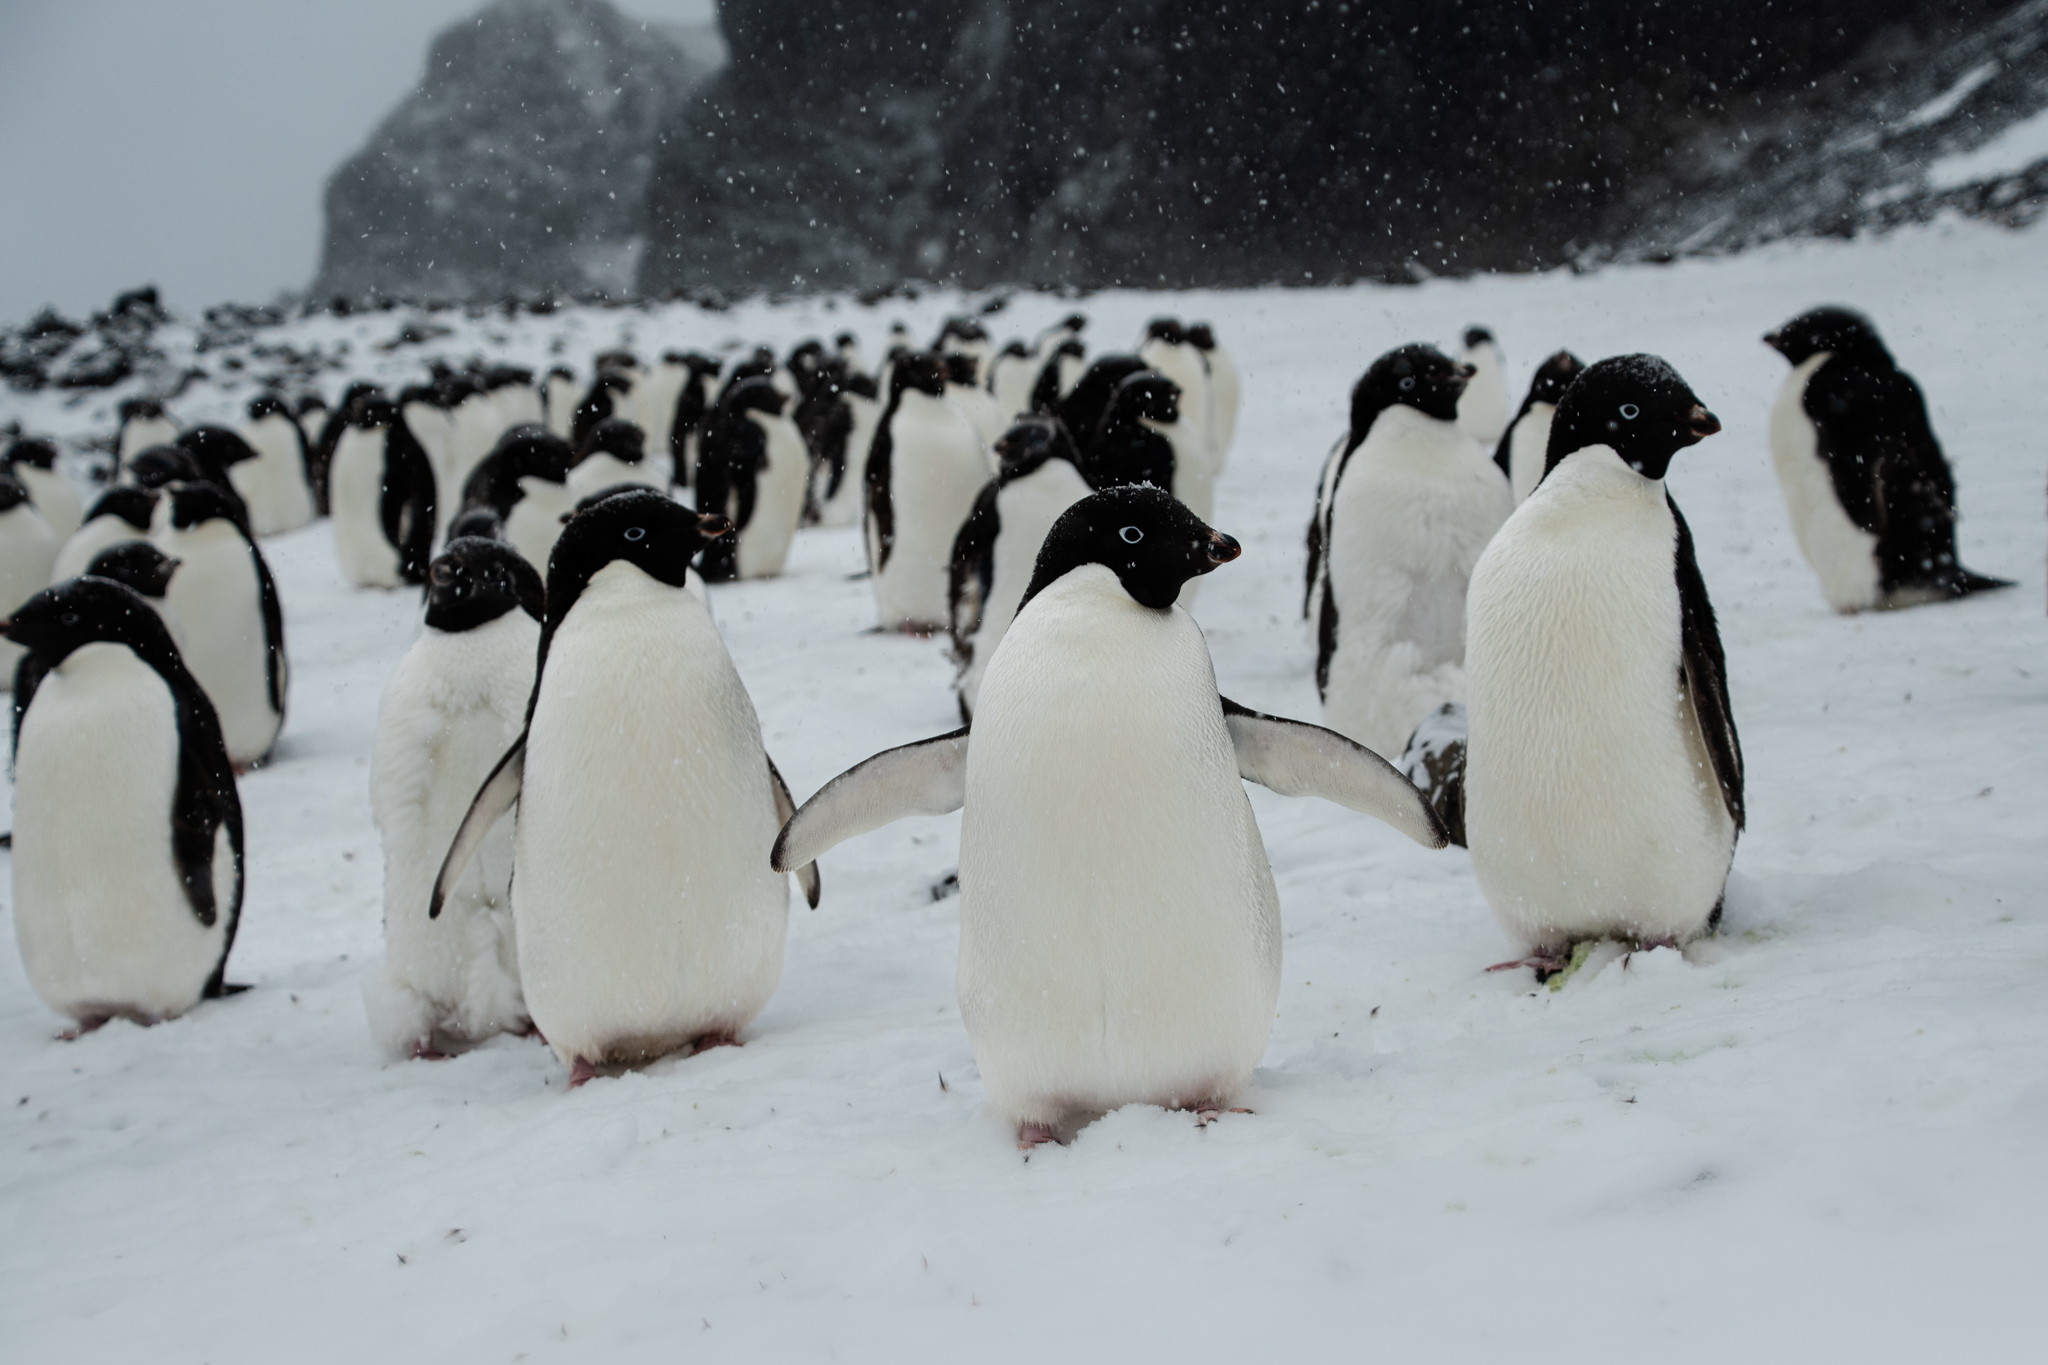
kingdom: Animalia
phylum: Chordata
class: Aves
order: Sphenisciformes
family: Spheniscidae
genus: Pygoscelis
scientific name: Pygoscelis adeliae
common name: Adelie penguin
